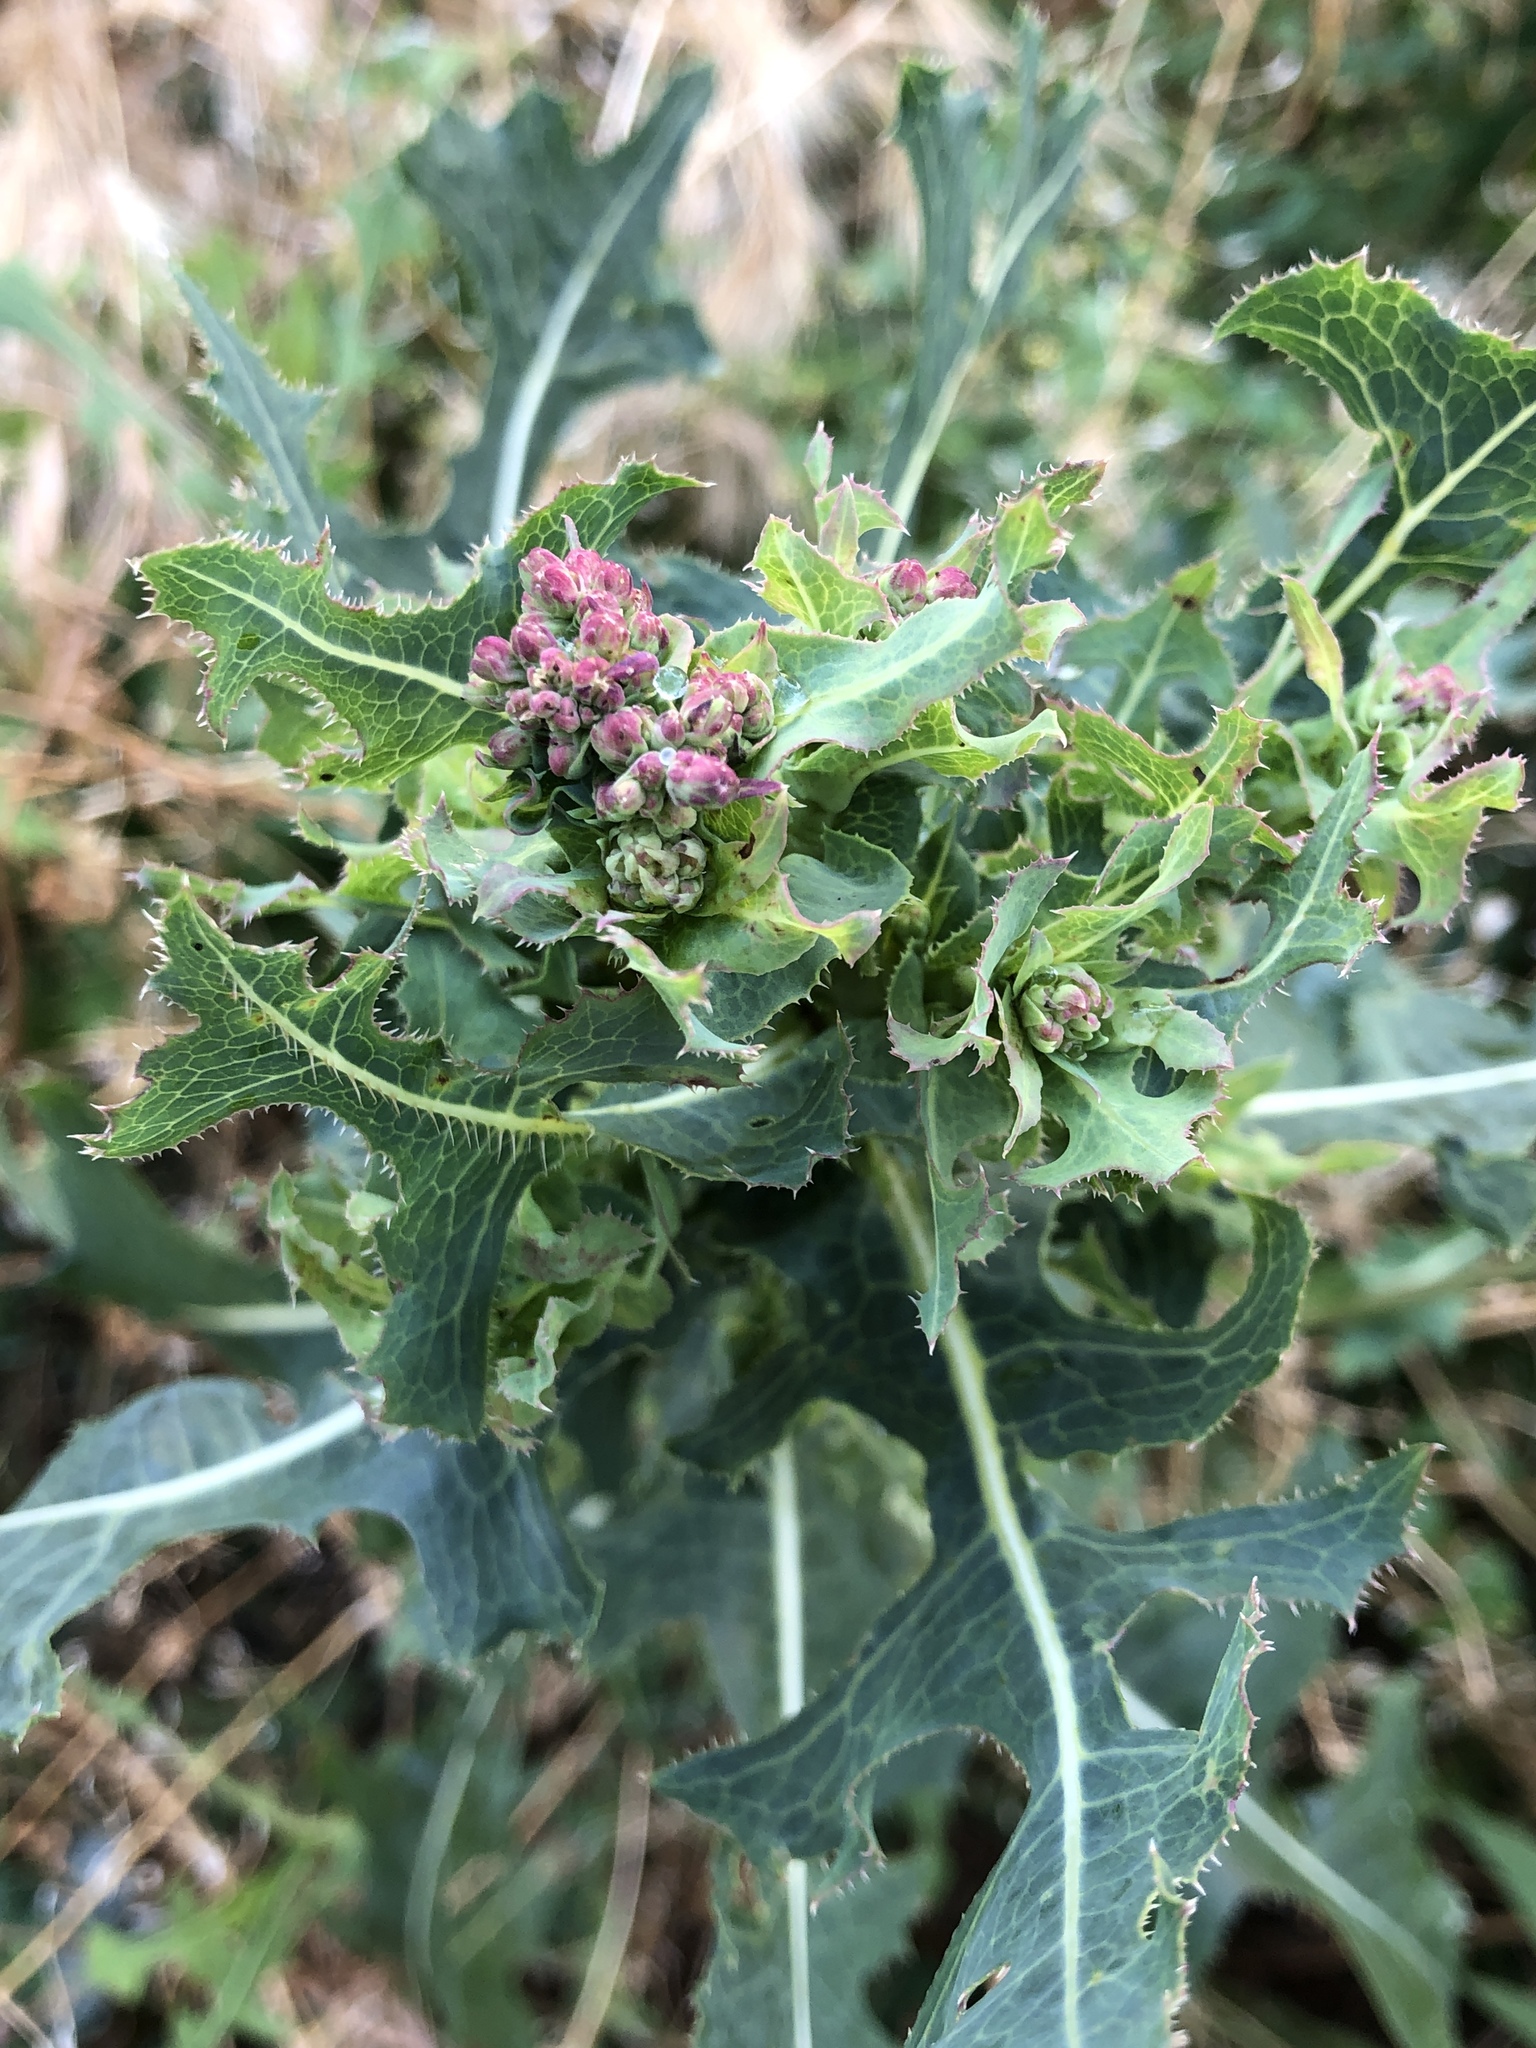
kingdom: Plantae
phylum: Tracheophyta
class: Magnoliopsida
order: Asterales
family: Asteraceae
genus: Lactuca
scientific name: Lactuca serriola
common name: Prickly lettuce
